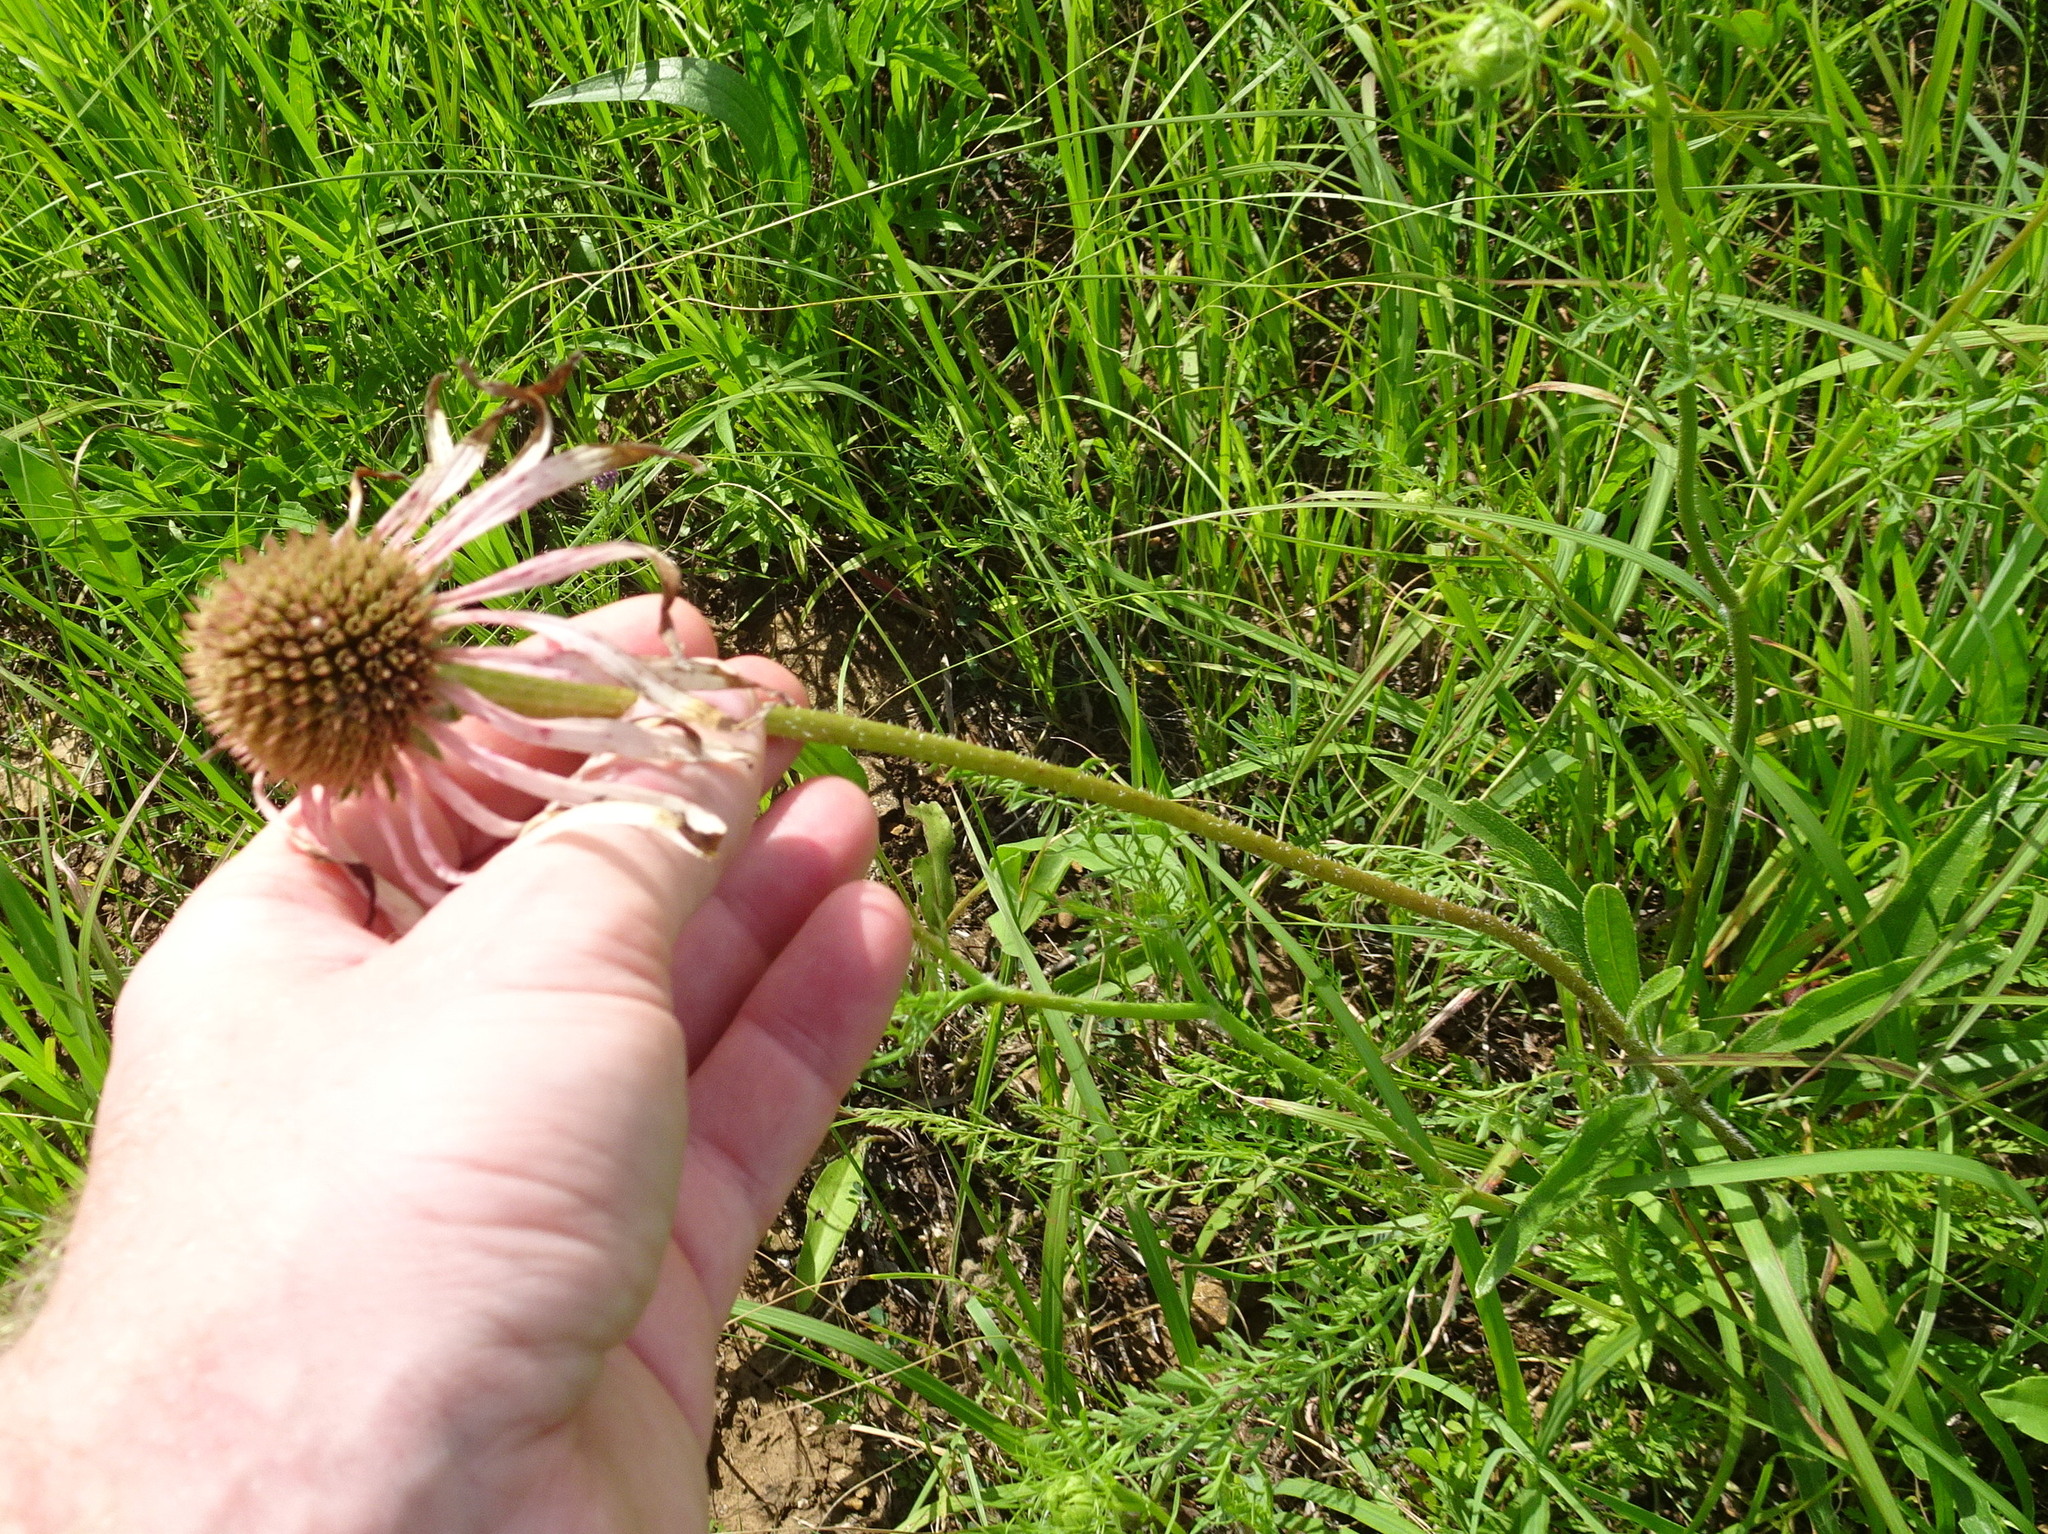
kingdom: Plantae
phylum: Tracheophyta
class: Magnoliopsida
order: Asterales
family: Asteraceae
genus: Echinacea
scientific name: Echinacea angustifolia
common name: Black-sampson echinacea
